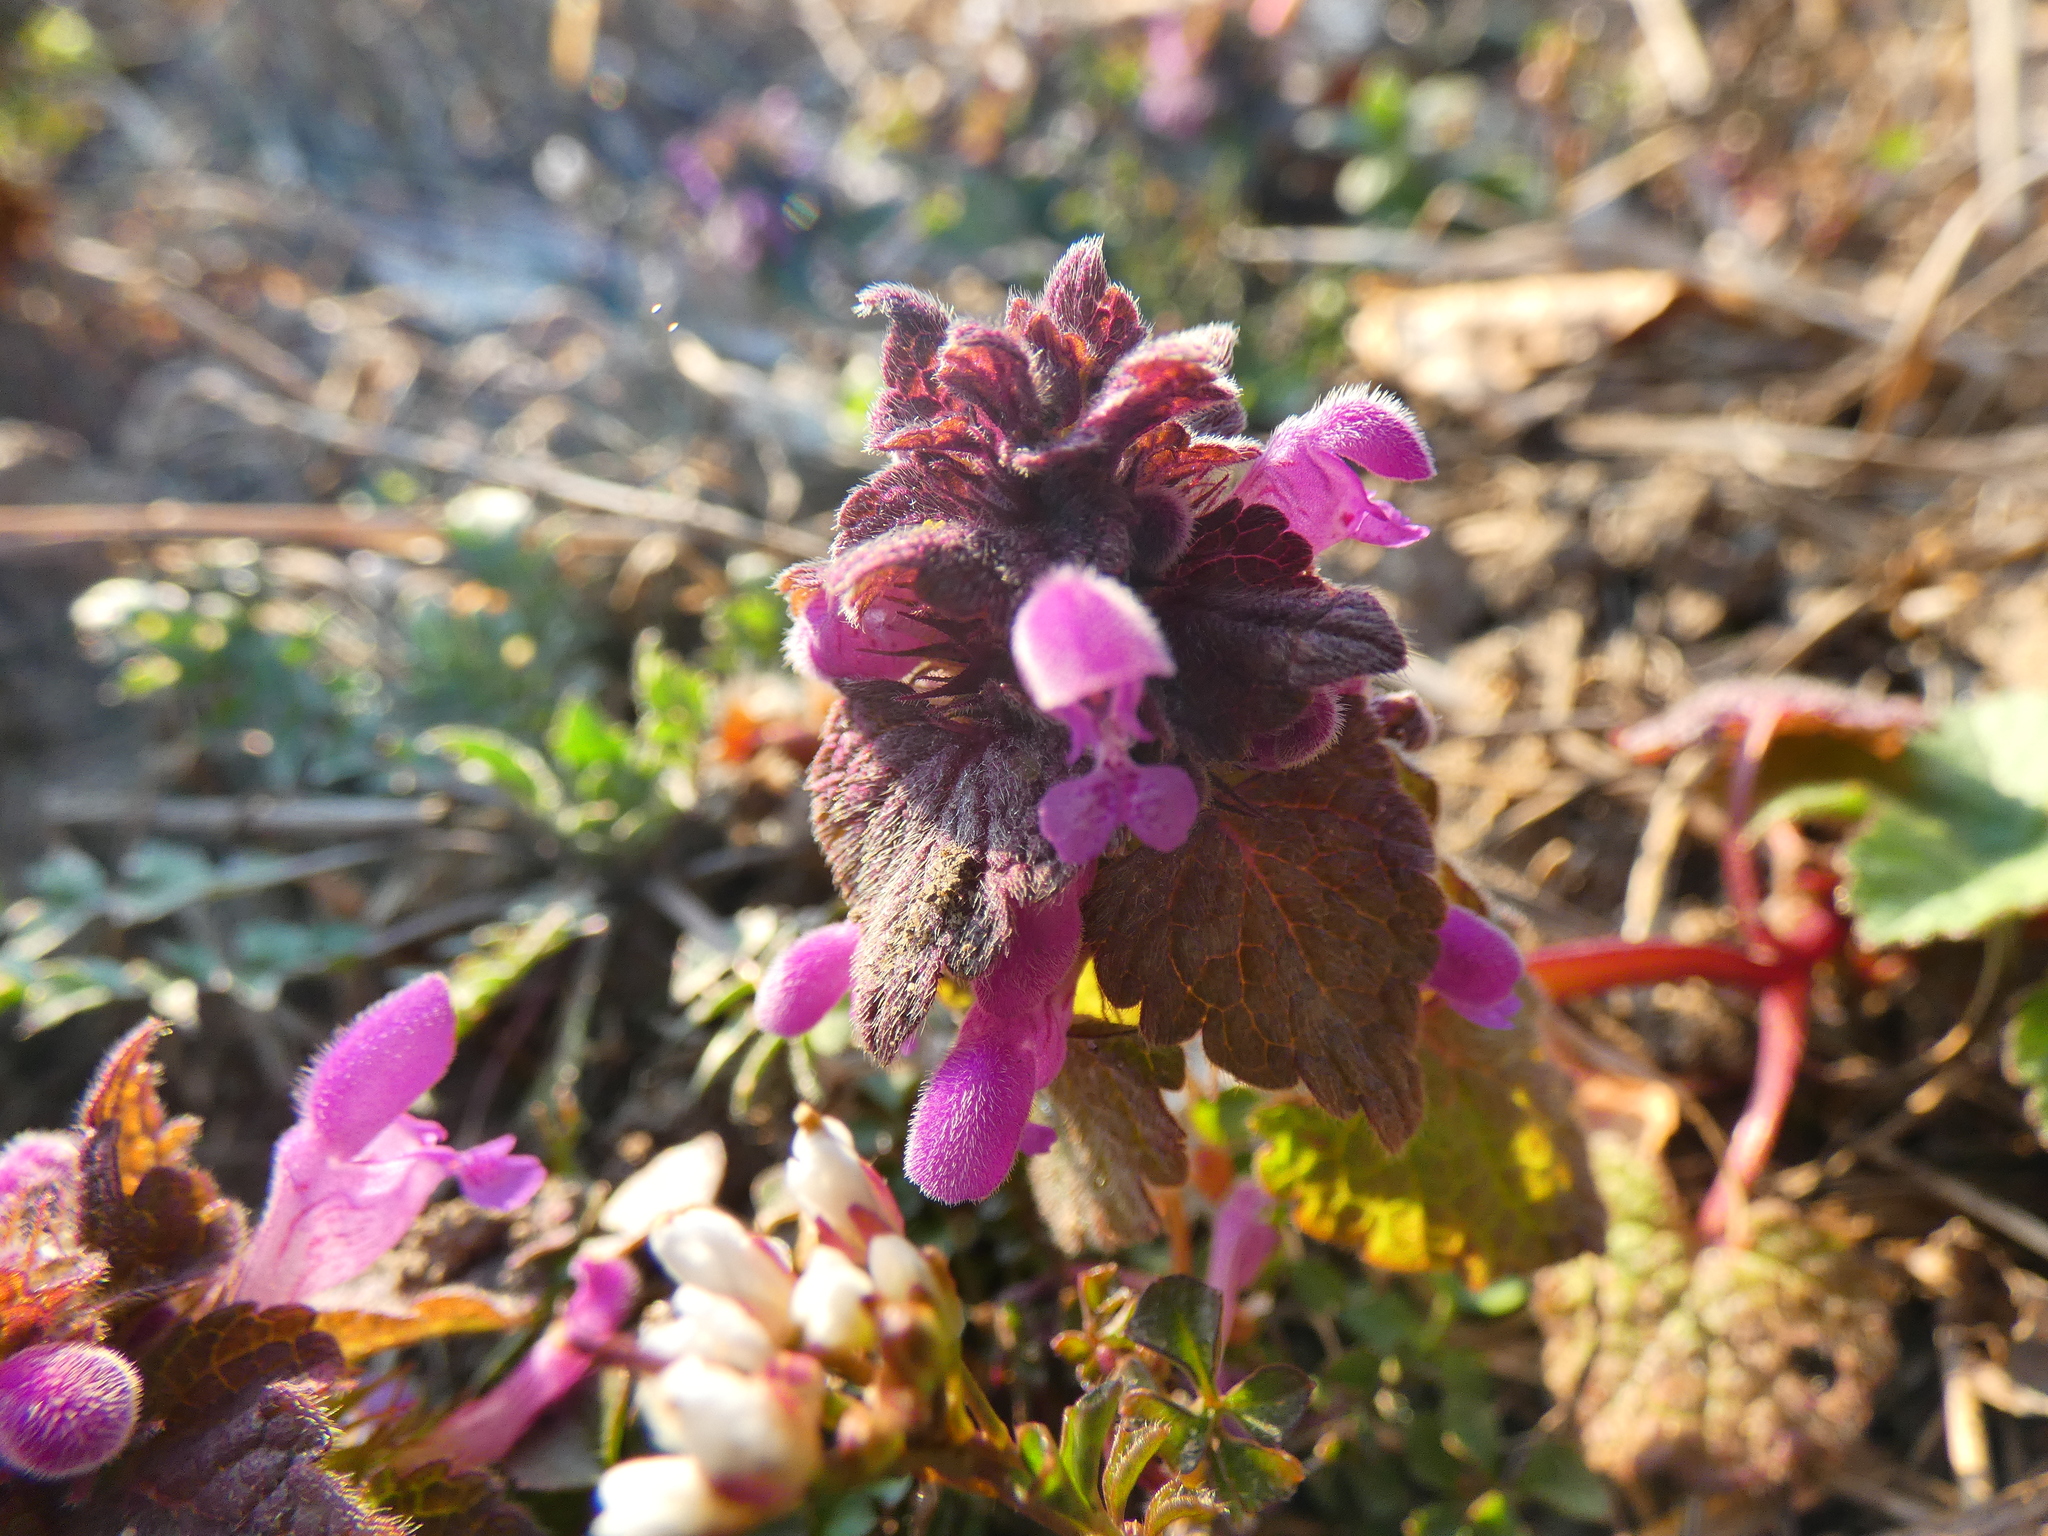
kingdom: Plantae
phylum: Tracheophyta
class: Magnoliopsida
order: Lamiales
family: Lamiaceae
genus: Lamium
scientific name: Lamium purpureum
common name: Red dead-nettle
